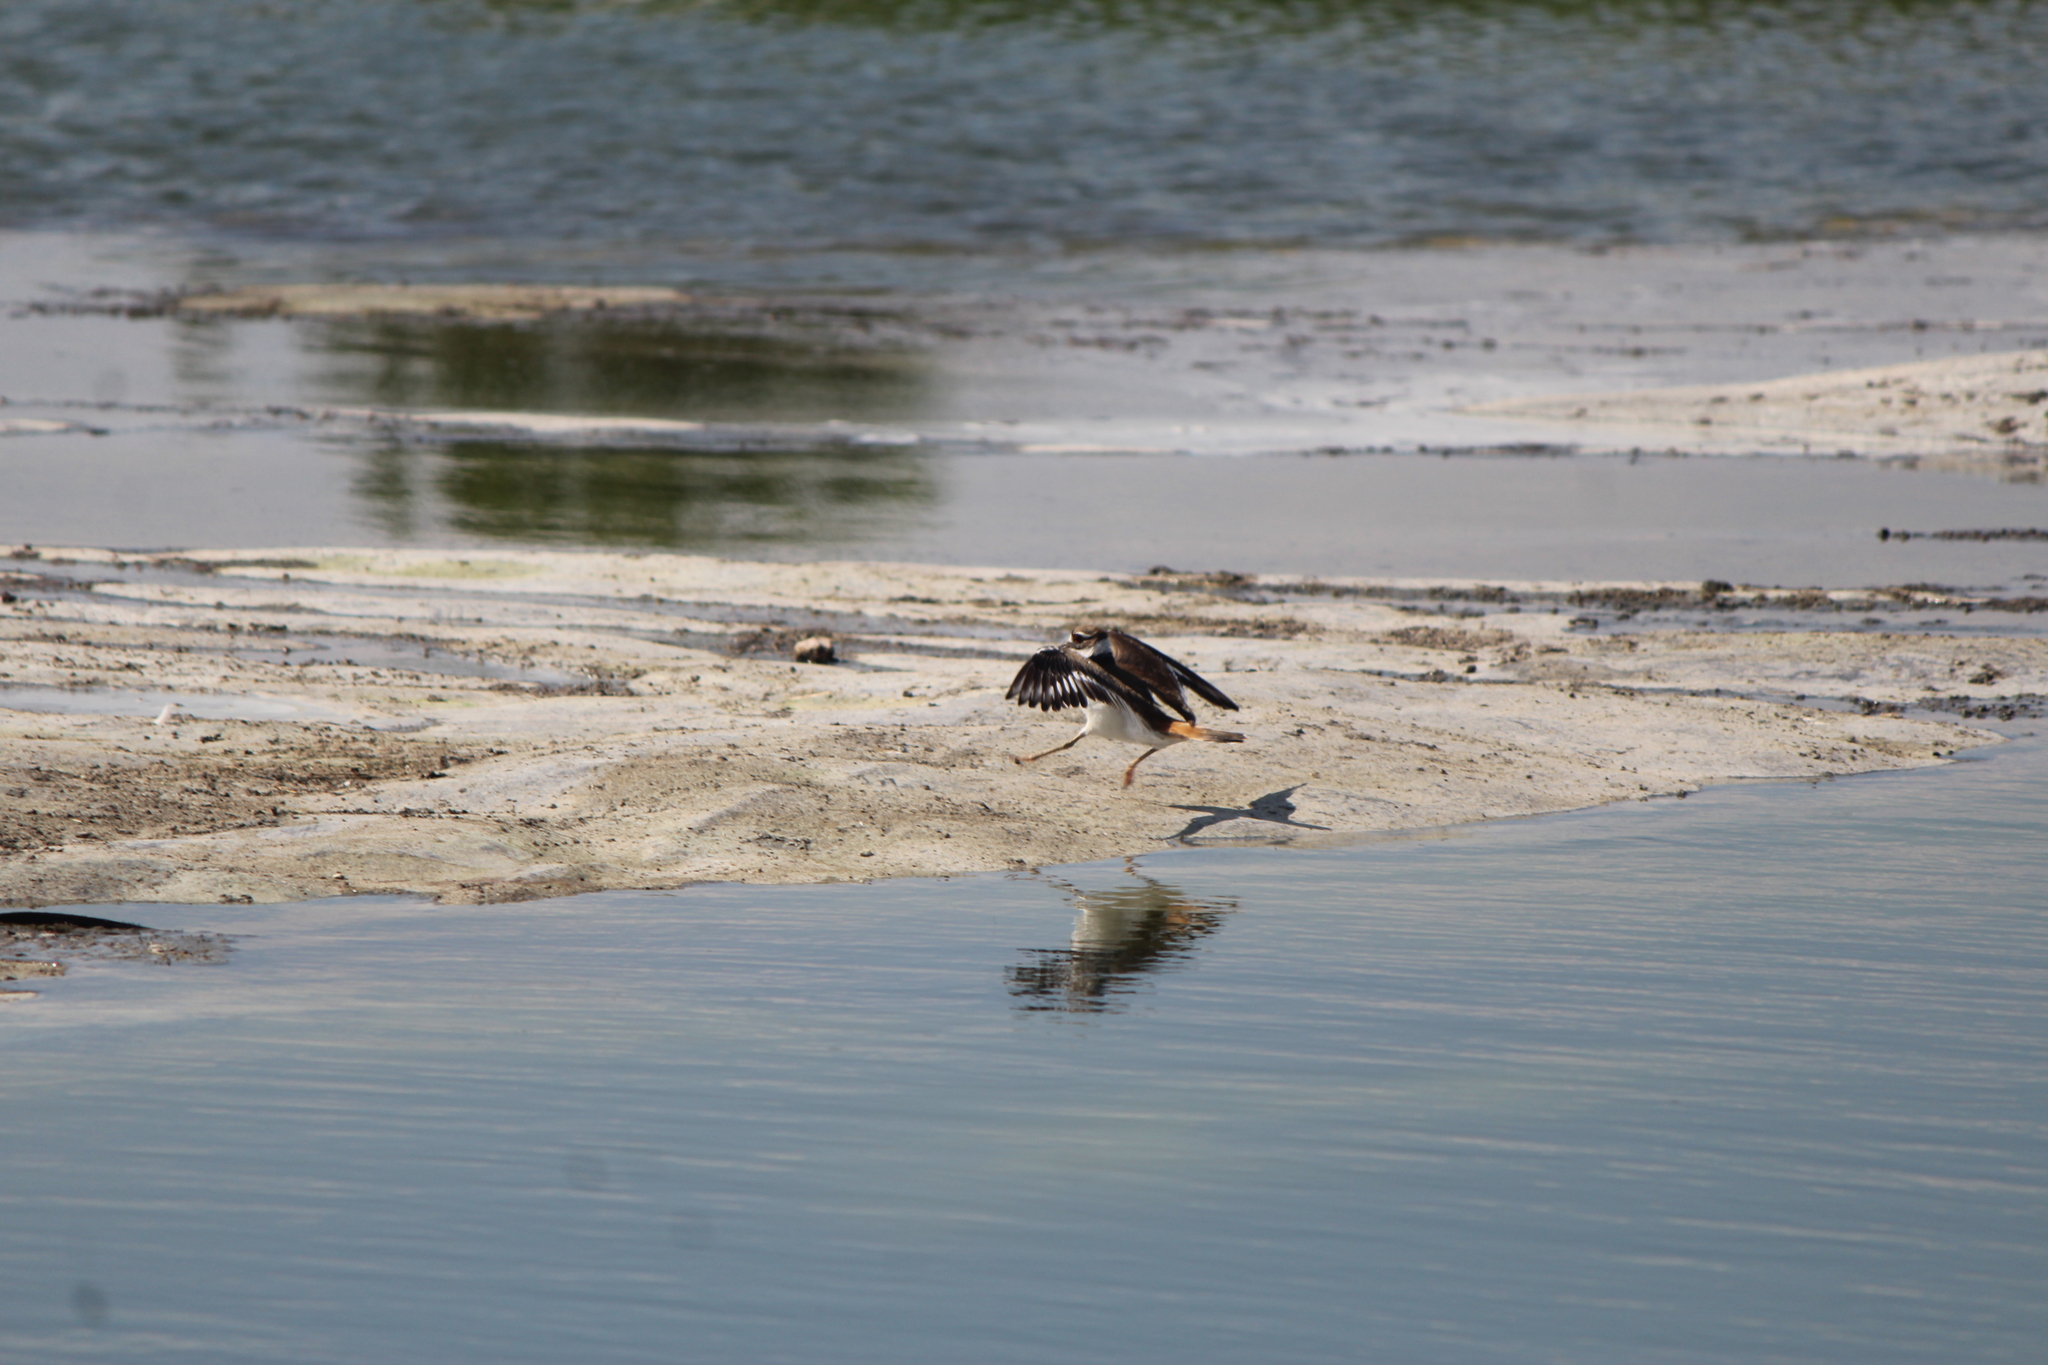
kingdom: Animalia
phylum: Chordata
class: Aves
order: Charadriiformes
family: Charadriidae
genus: Charadrius
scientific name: Charadrius vociferus
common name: Killdeer
